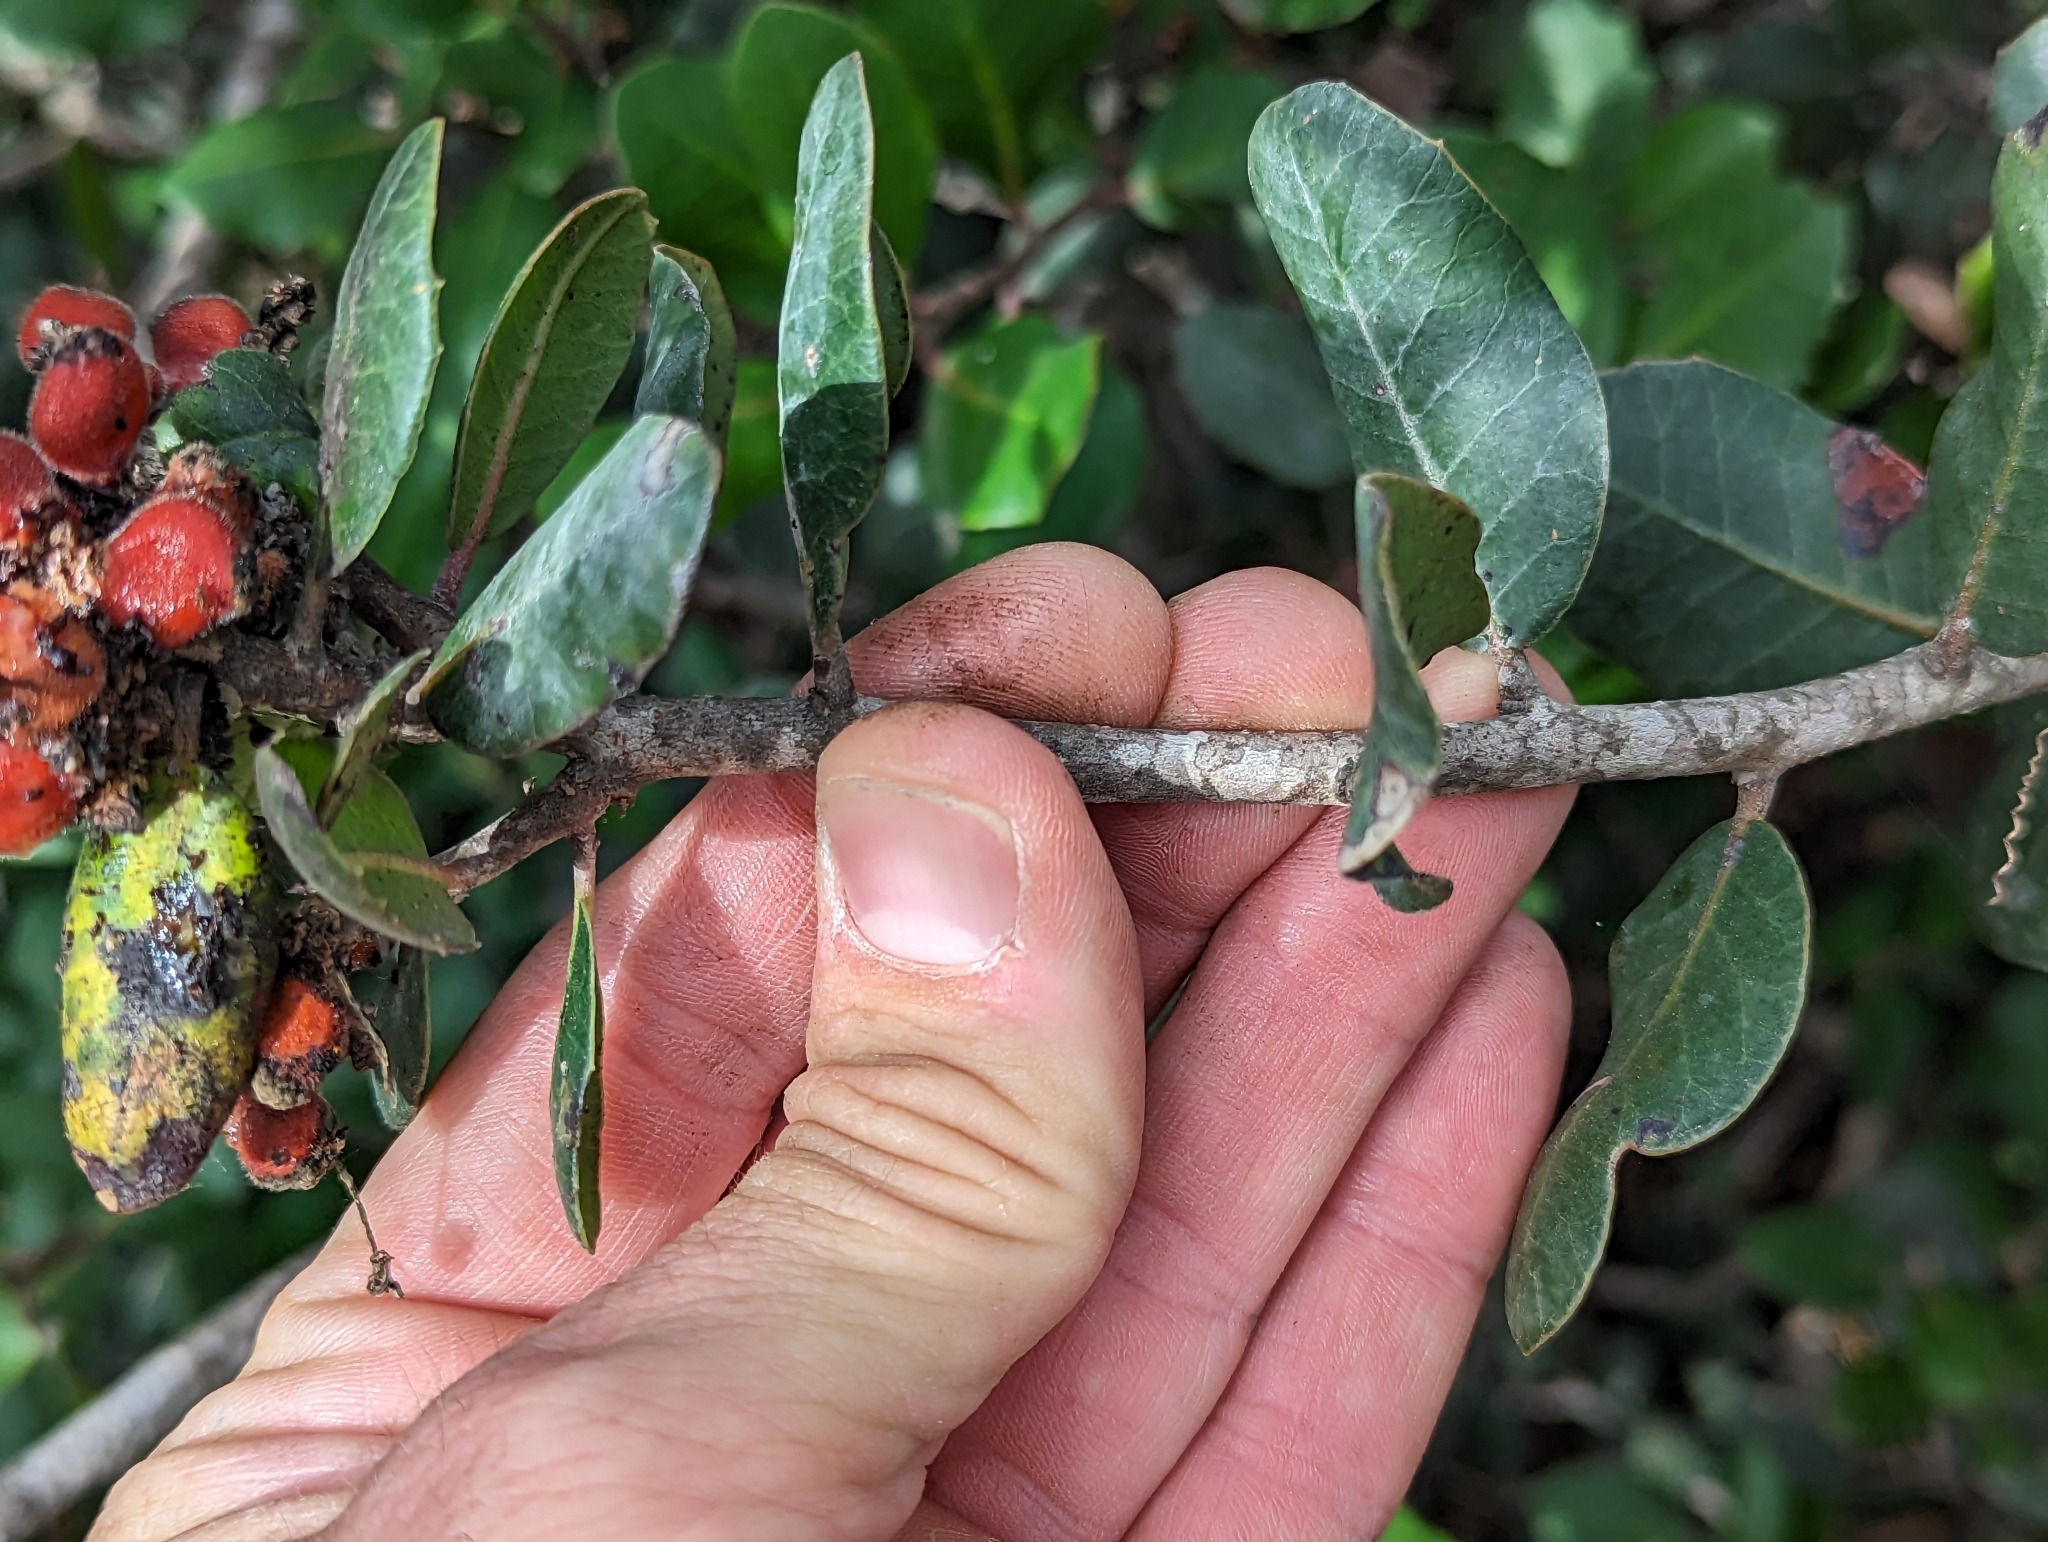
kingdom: Plantae
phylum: Tracheophyta
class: Magnoliopsida
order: Sapindales
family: Anacardiaceae
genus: Rhus
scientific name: Rhus integrifolia
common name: Lemonade sumac
